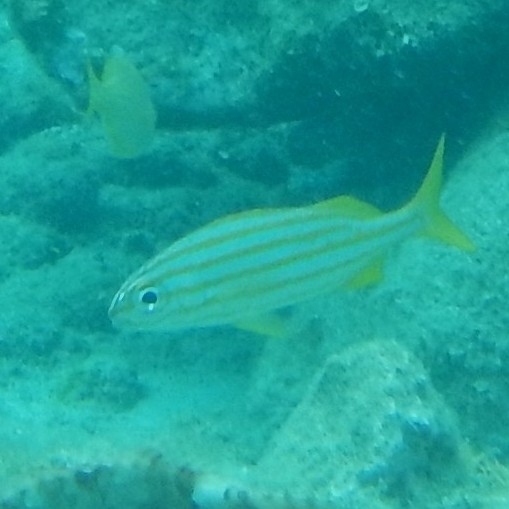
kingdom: Animalia
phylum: Chordata
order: Perciformes
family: Haemulidae
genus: Haemulon
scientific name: Haemulon chrysargyreum
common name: Smallmouth grunt
